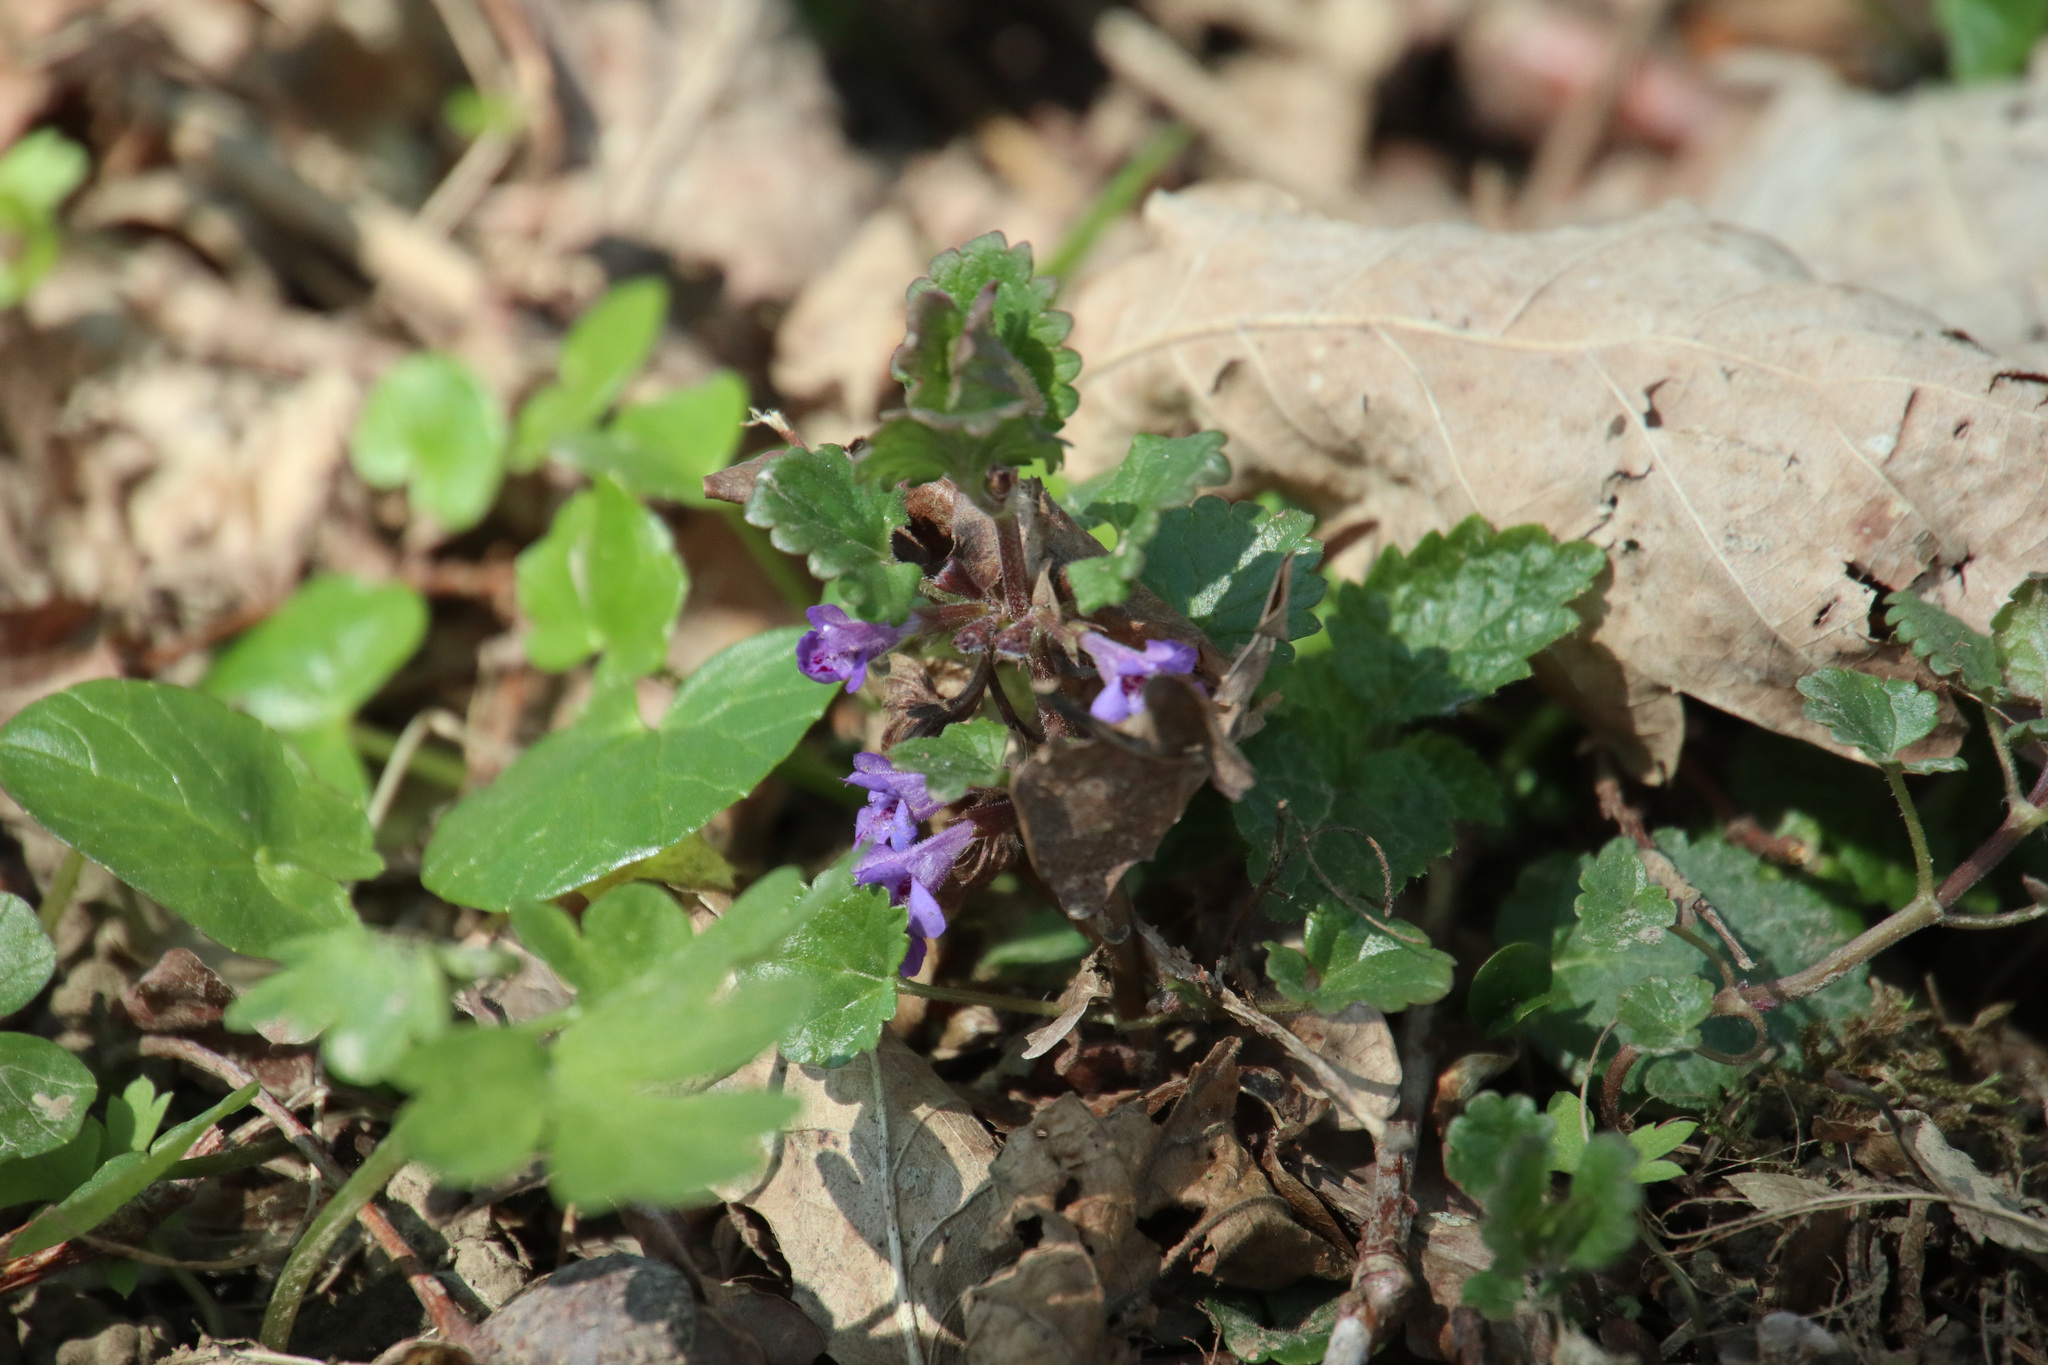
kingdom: Plantae
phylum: Tracheophyta
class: Magnoliopsida
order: Lamiales
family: Lamiaceae
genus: Glechoma
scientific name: Glechoma hederacea
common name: Ground ivy
